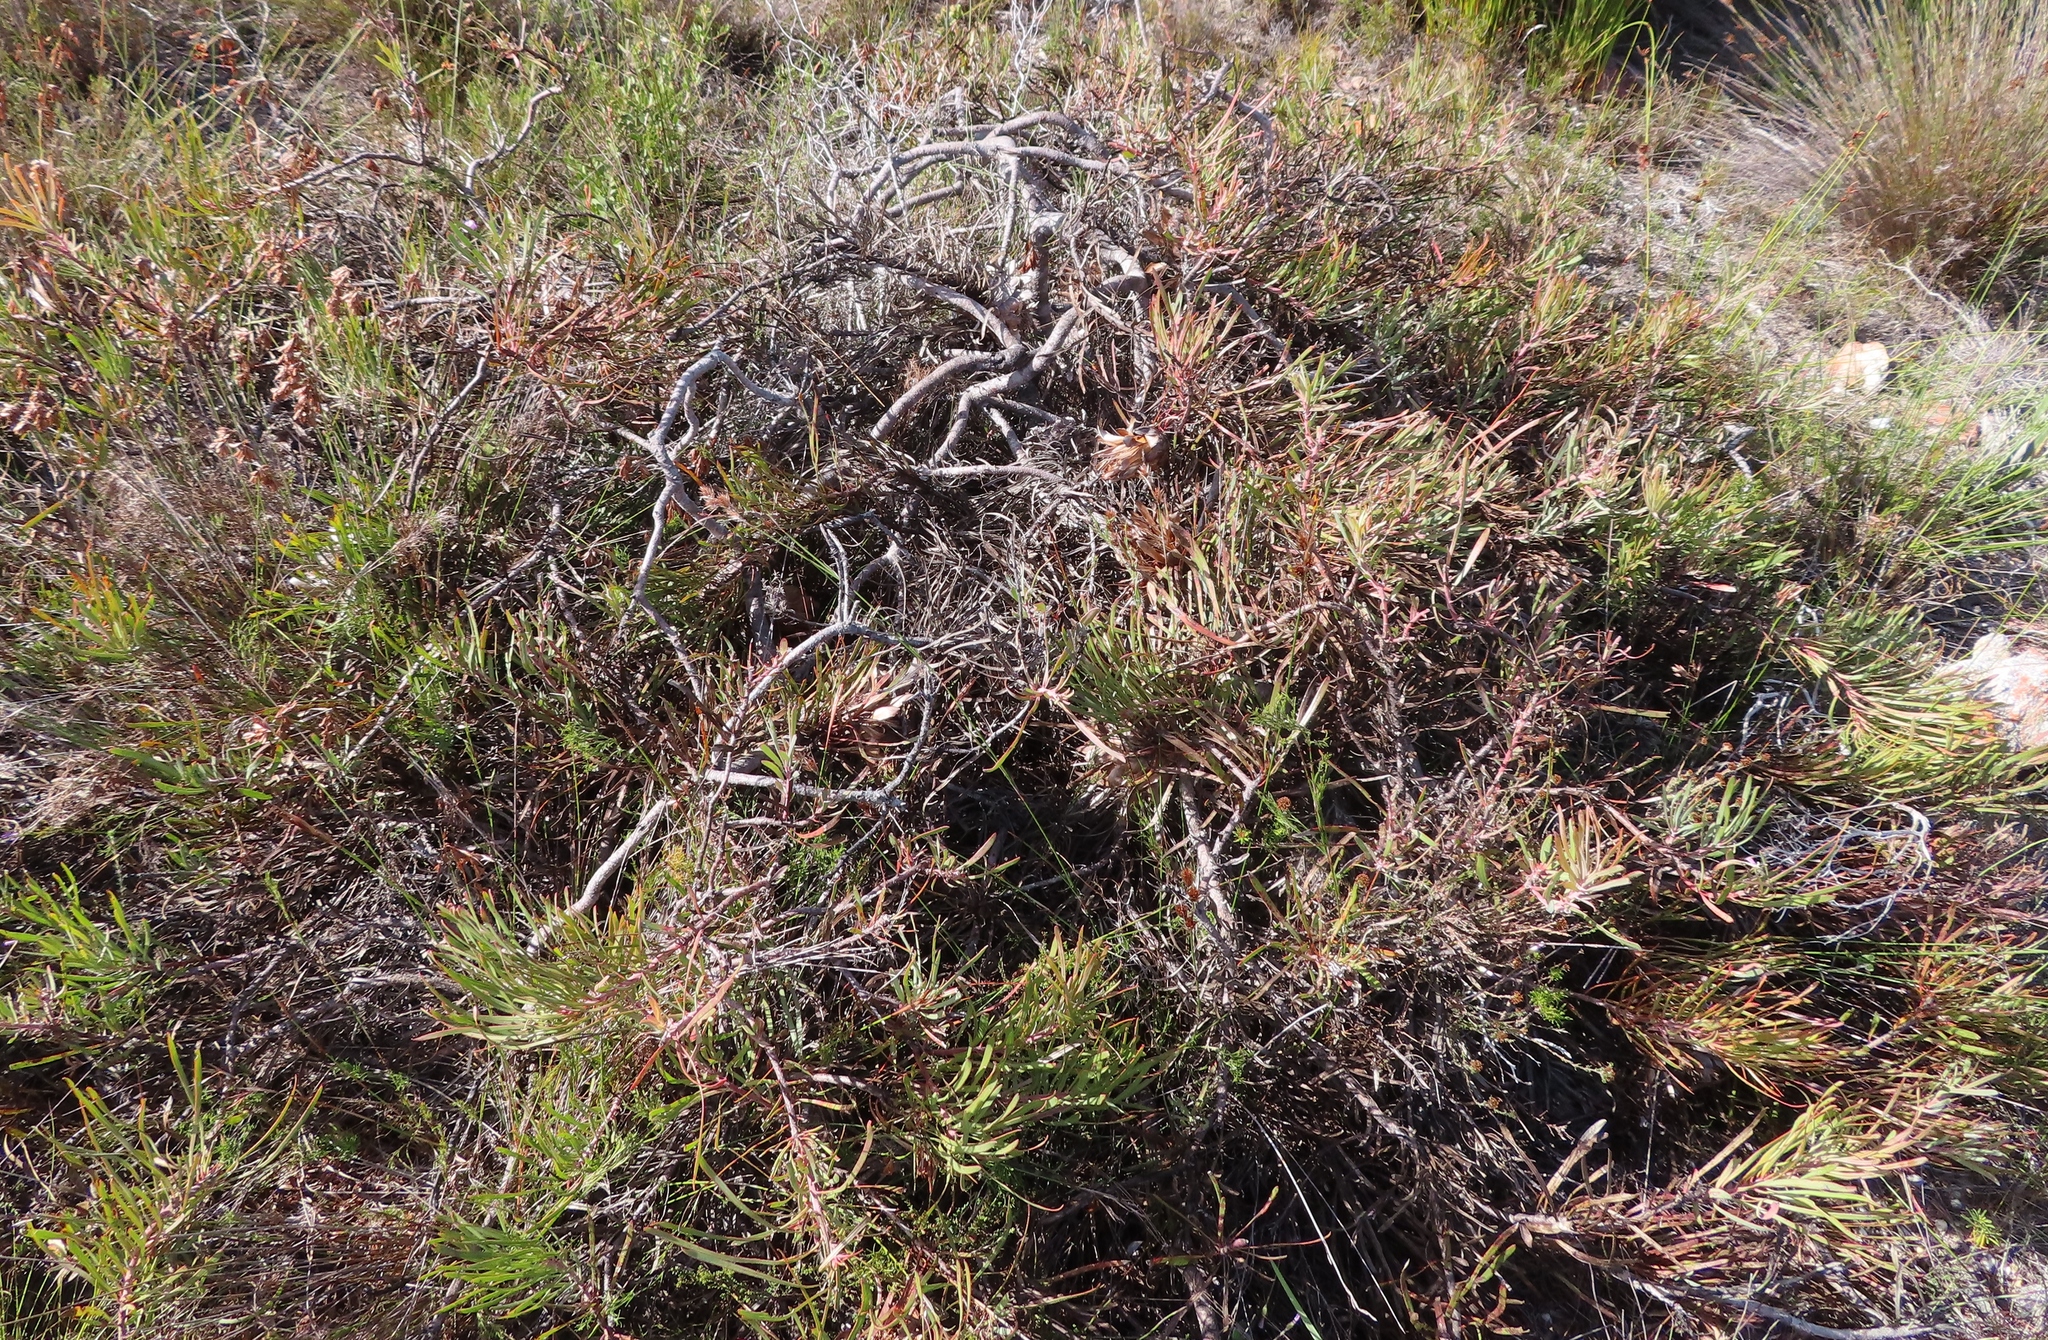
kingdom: Plantae
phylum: Tracheophyta
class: Magnoliopsida
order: Proteales
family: Proteaceae
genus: Protea
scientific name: Protea pudens
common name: Bashful sugarbush
